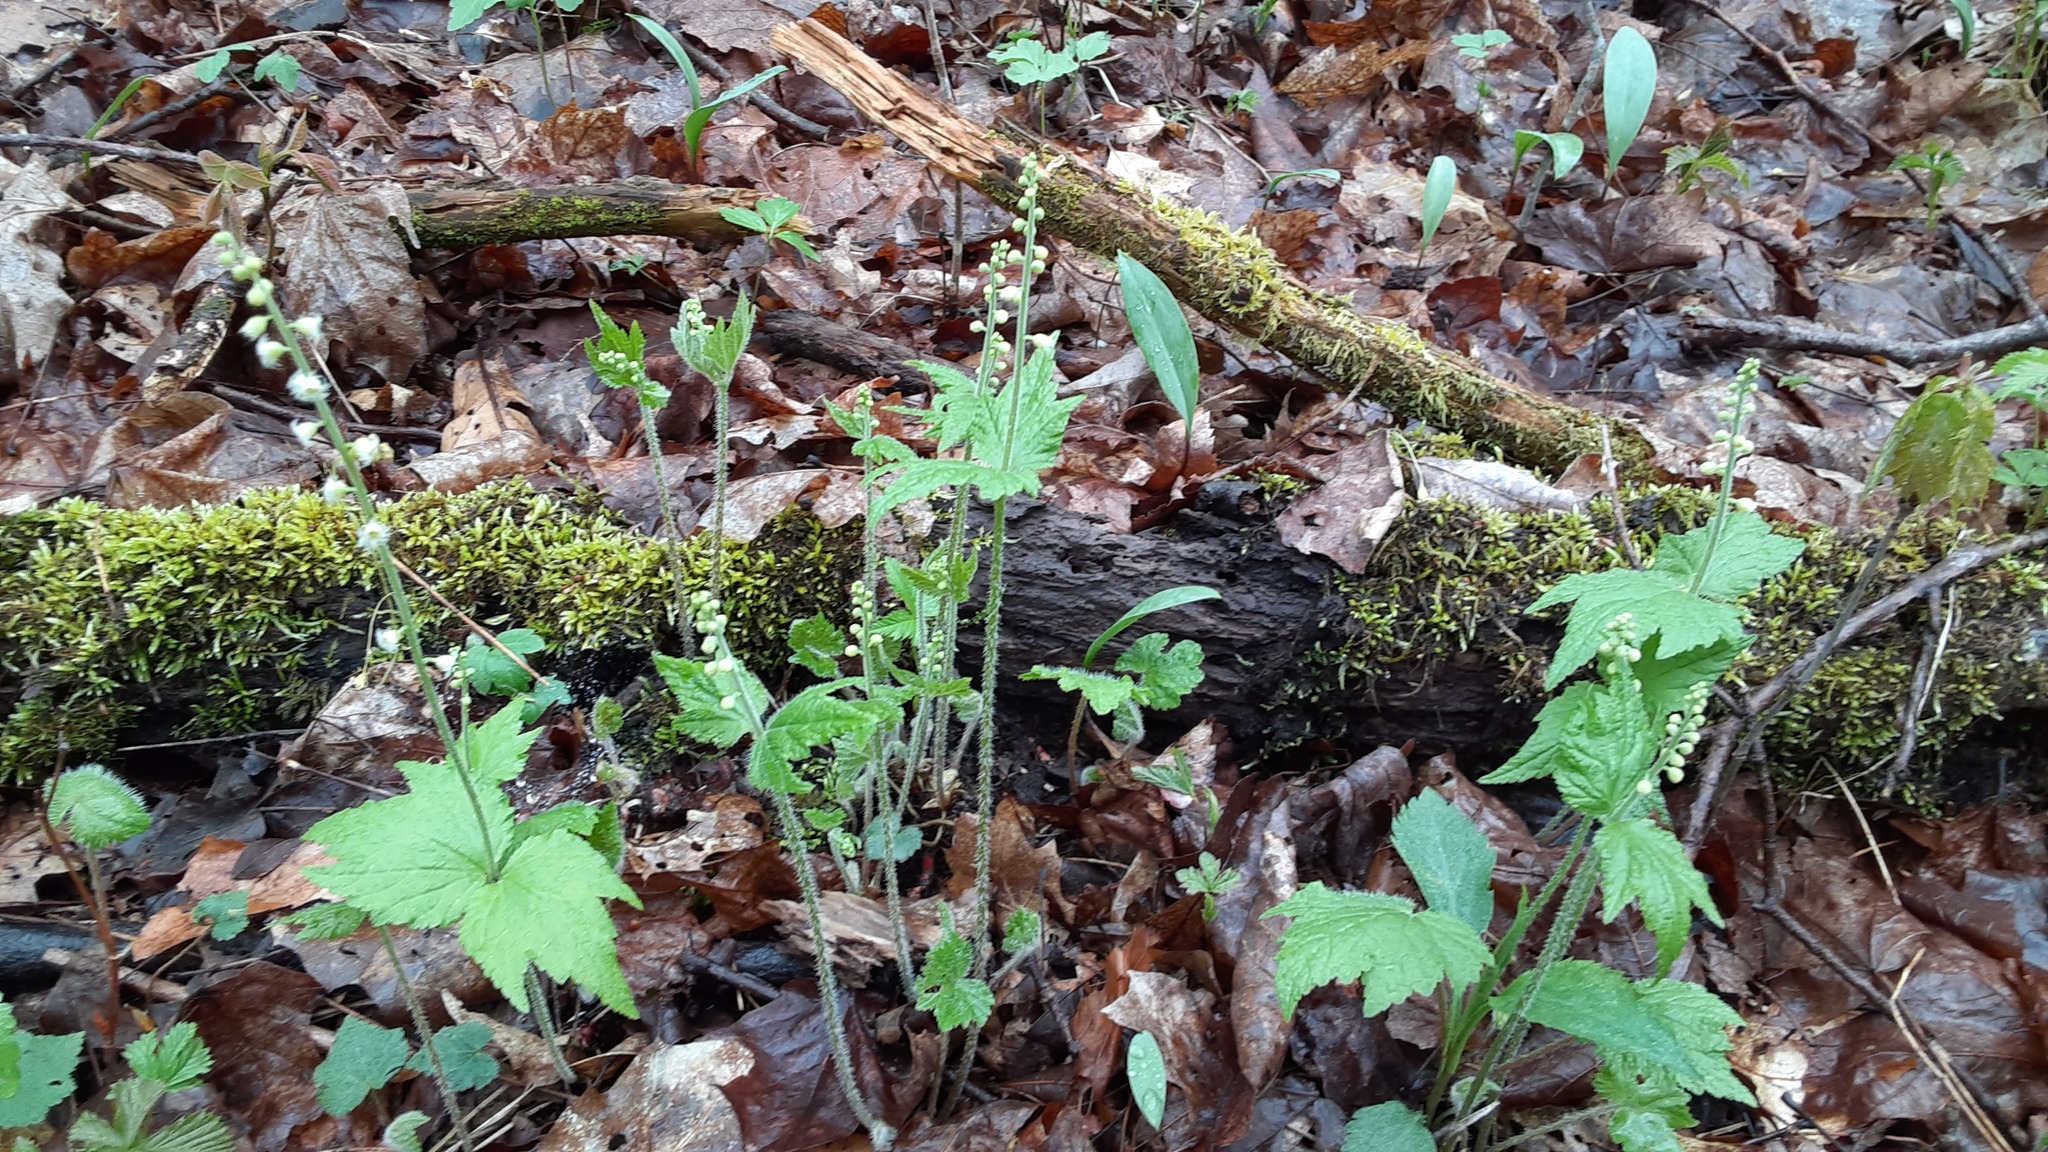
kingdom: Plantae
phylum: Tracheophyta
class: Magnoliopsida
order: Saxifragales
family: Saxifragaceae
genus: Mitella
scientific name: Mitella diphylla
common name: Coolwort
